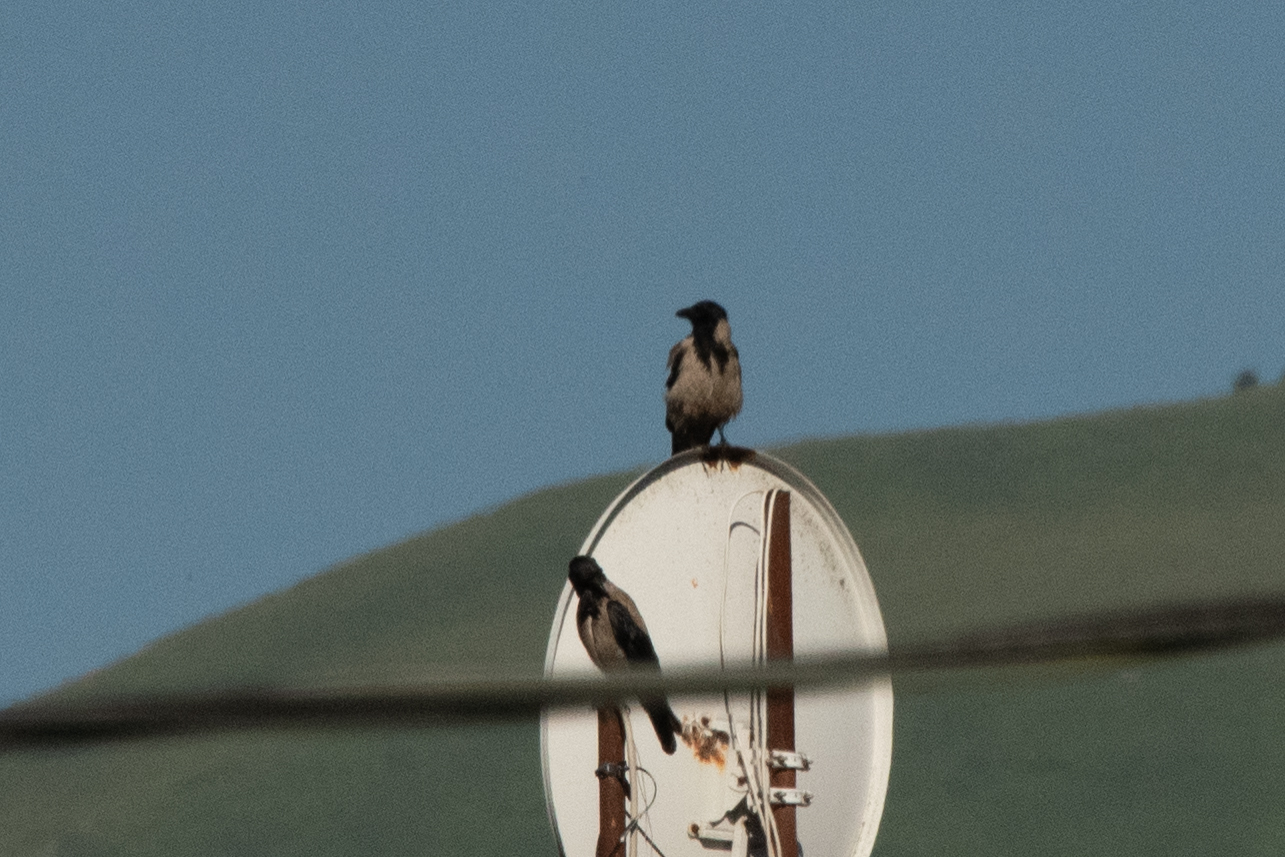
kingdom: Animalia
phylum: Chordata
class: Aves
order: Passeriformes
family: Corvidae
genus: Corvus
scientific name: Corvus cornix
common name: Hooded crow
